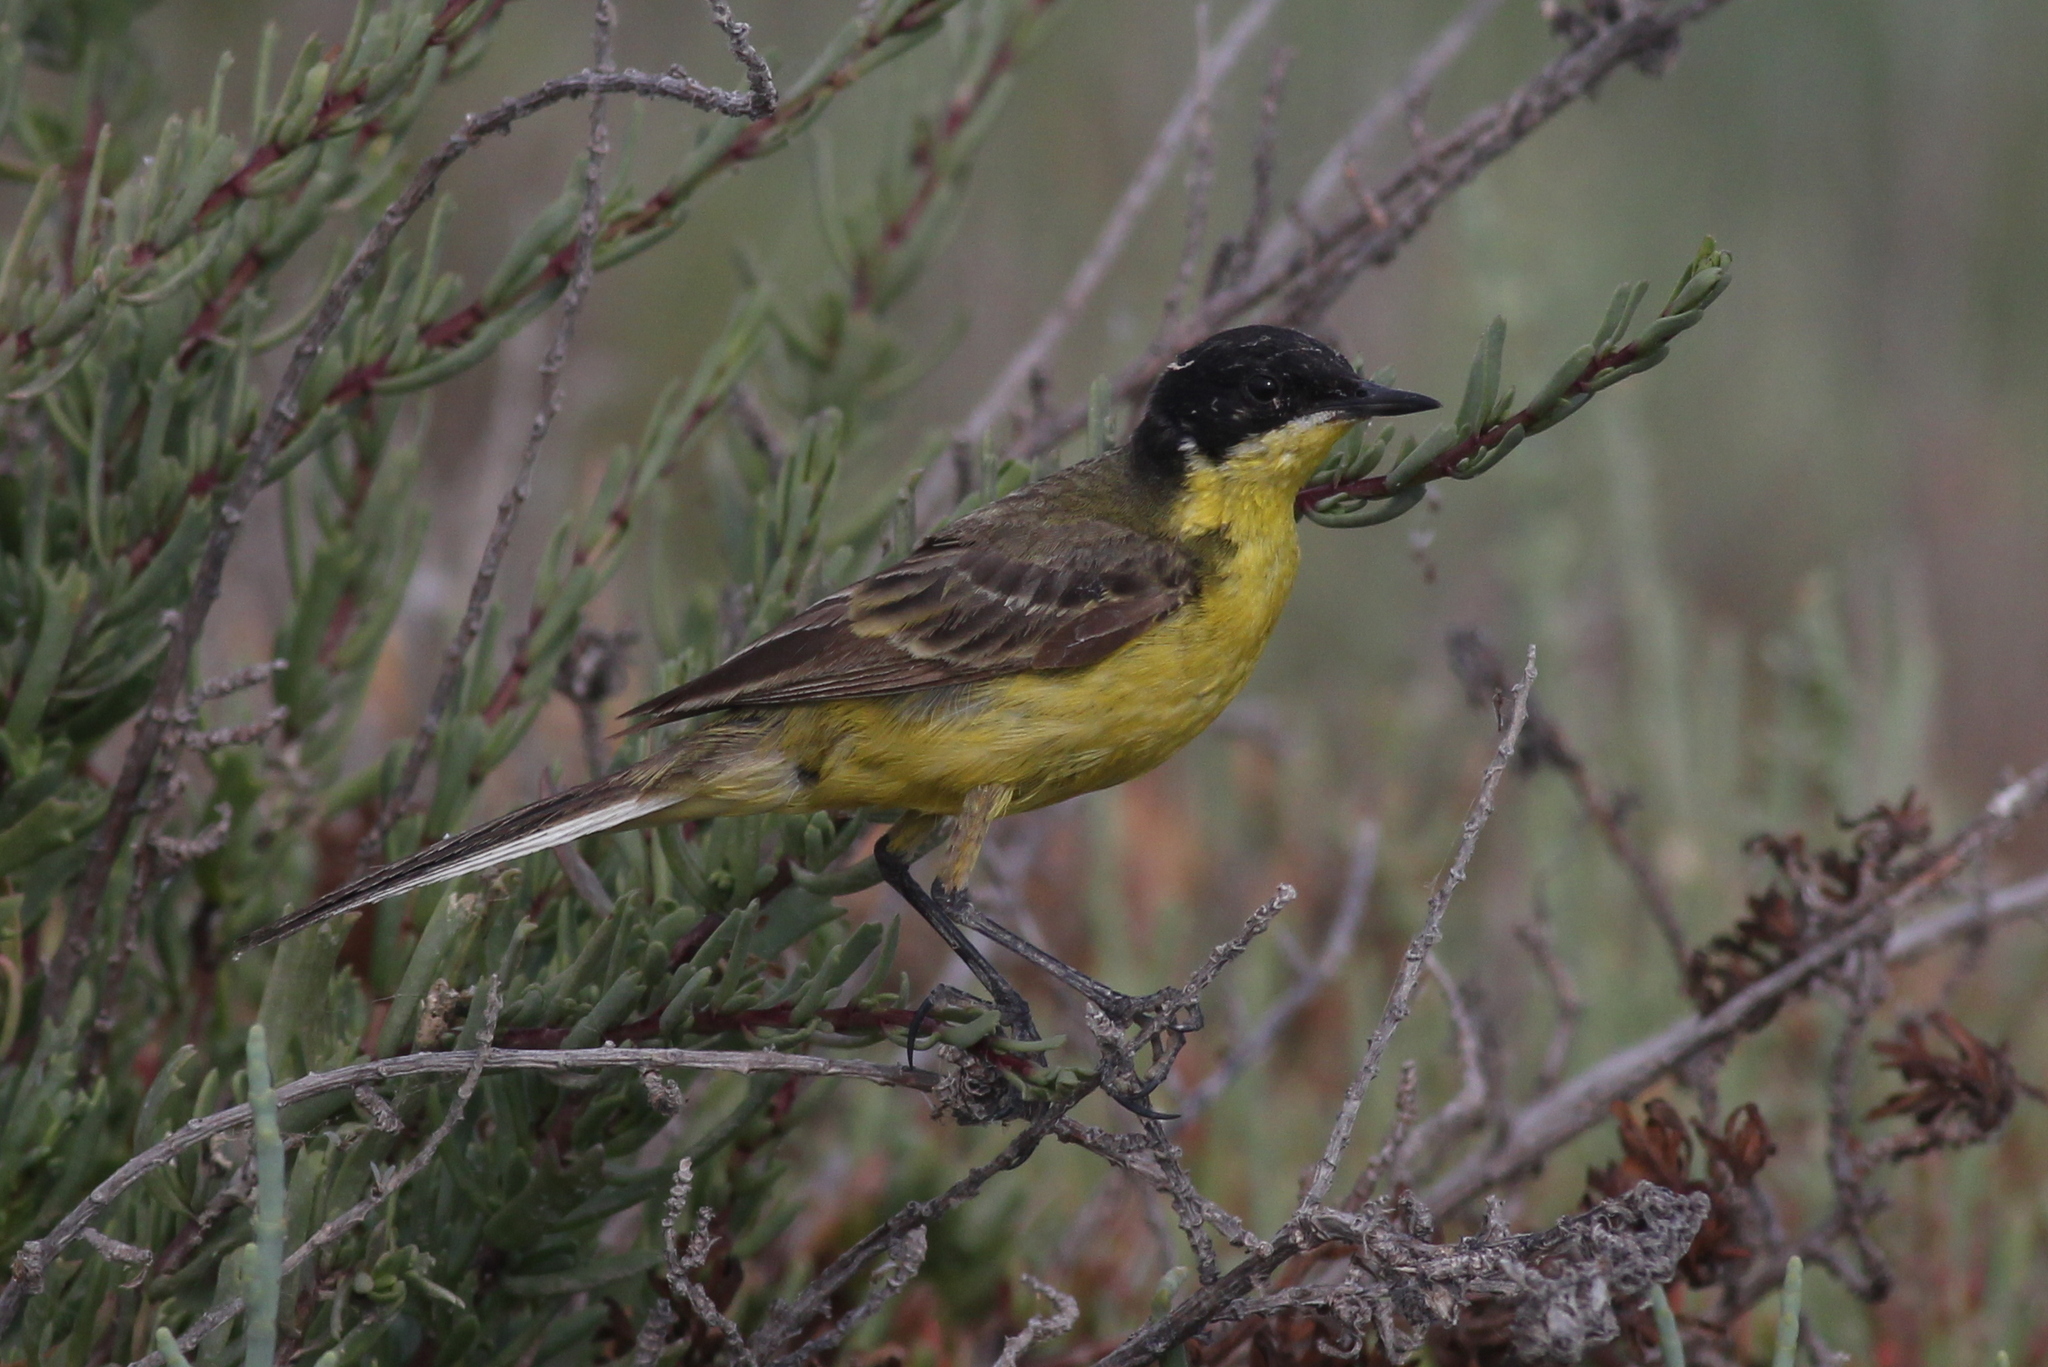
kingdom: Animalia
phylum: Chordata
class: Aves
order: Passeriformes
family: Motacillidae
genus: Motacilla
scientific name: Motacilla flava
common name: Western yellow wagtail
